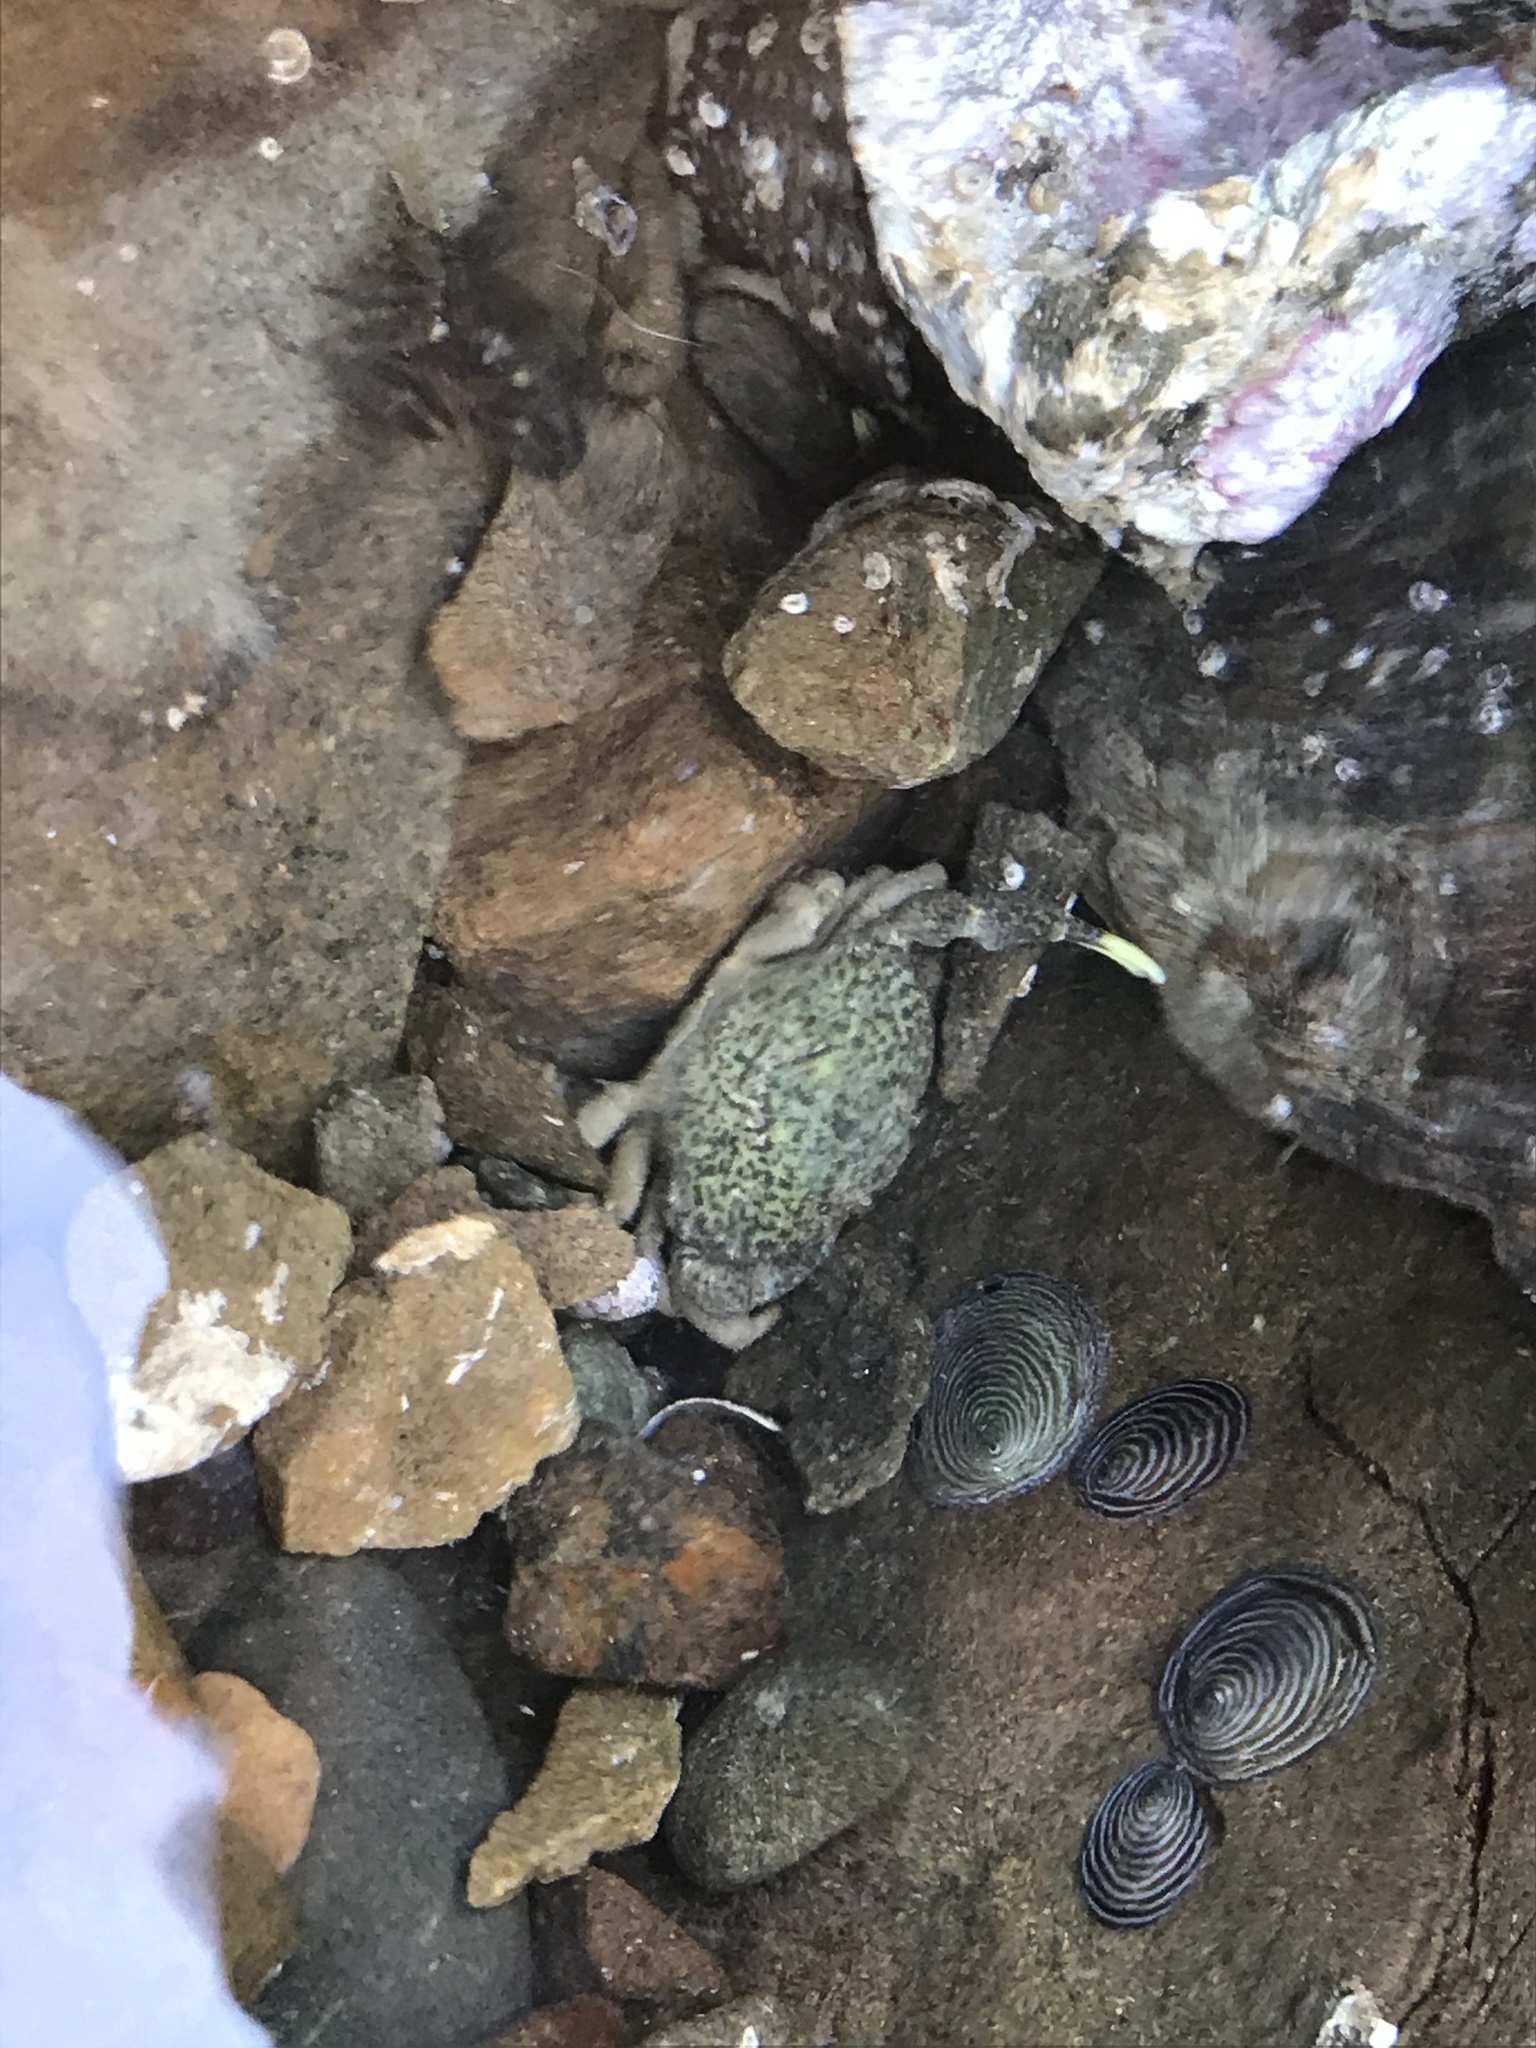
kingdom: Animalia
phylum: Arthropoda
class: Malacostraca
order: Decapoda
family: Heteroziidae
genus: Heterozius
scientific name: Heterozius rotundifrons
